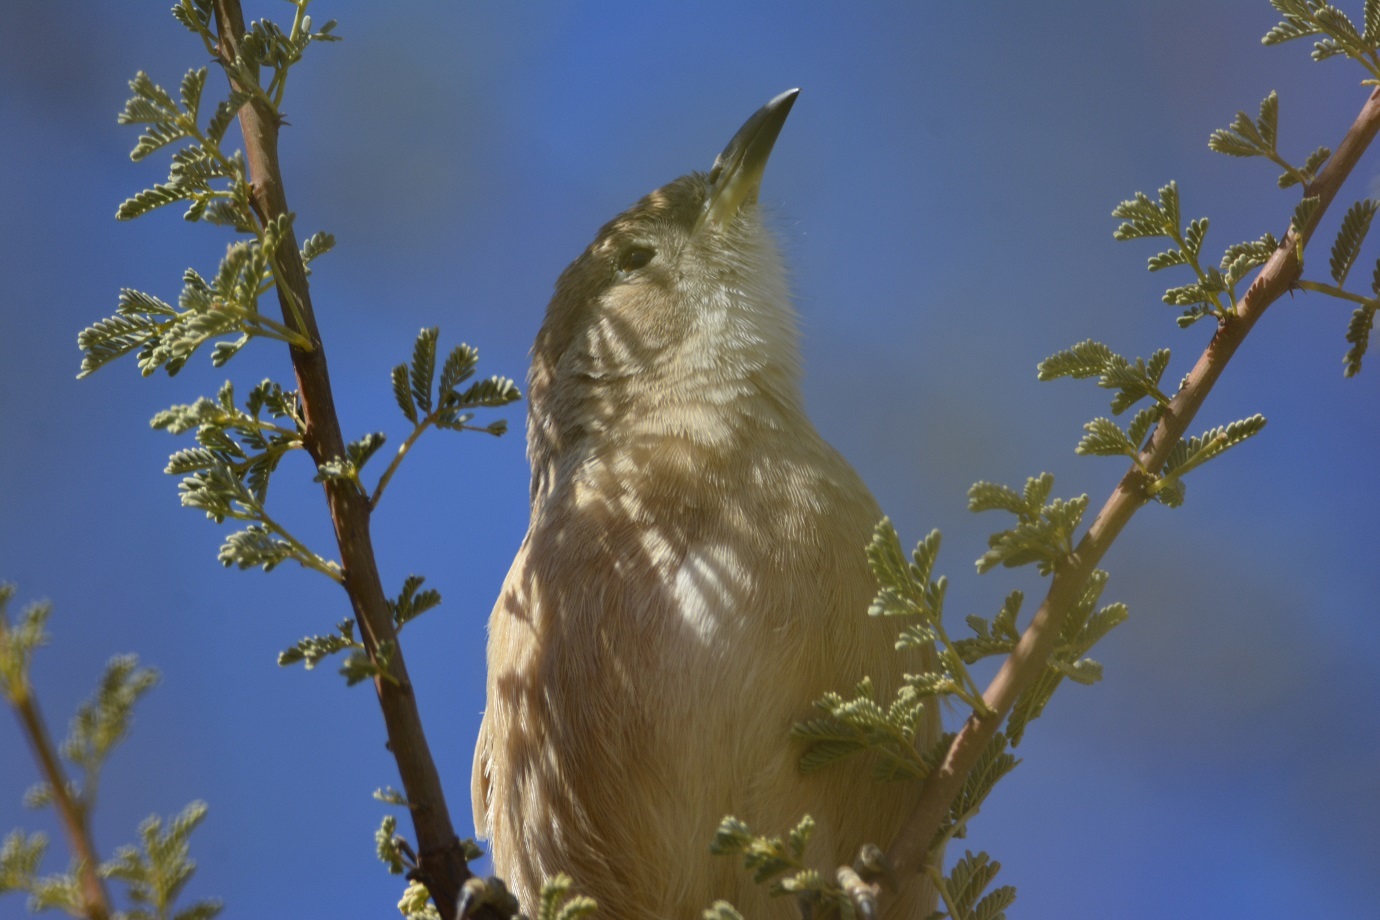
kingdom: Animalia
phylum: Chordata
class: Aves
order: Passeriformes
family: Leiothrichidae
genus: Turdoides
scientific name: Turdoides fulva
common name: Fulvous babbler
